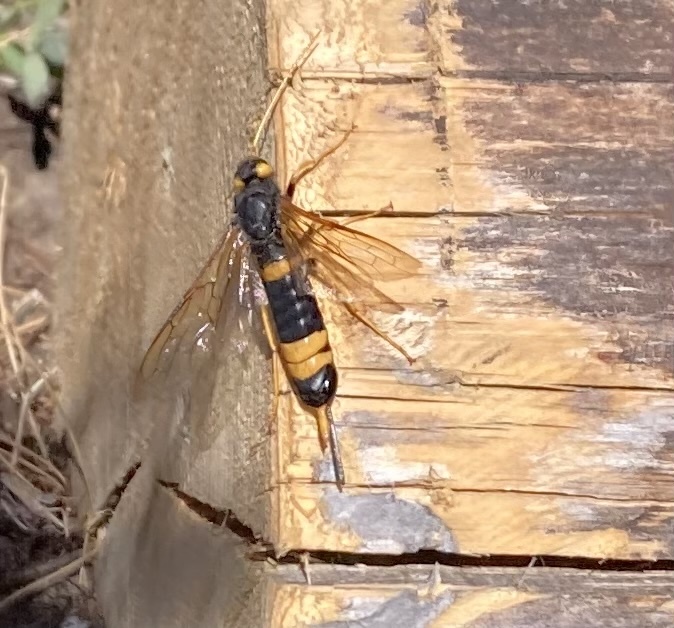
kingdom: Animalia
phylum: Arthropoda
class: Insecta
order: Hymenoptera
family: Siricidae
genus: Urocerus
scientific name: Urocerus flavicornis
